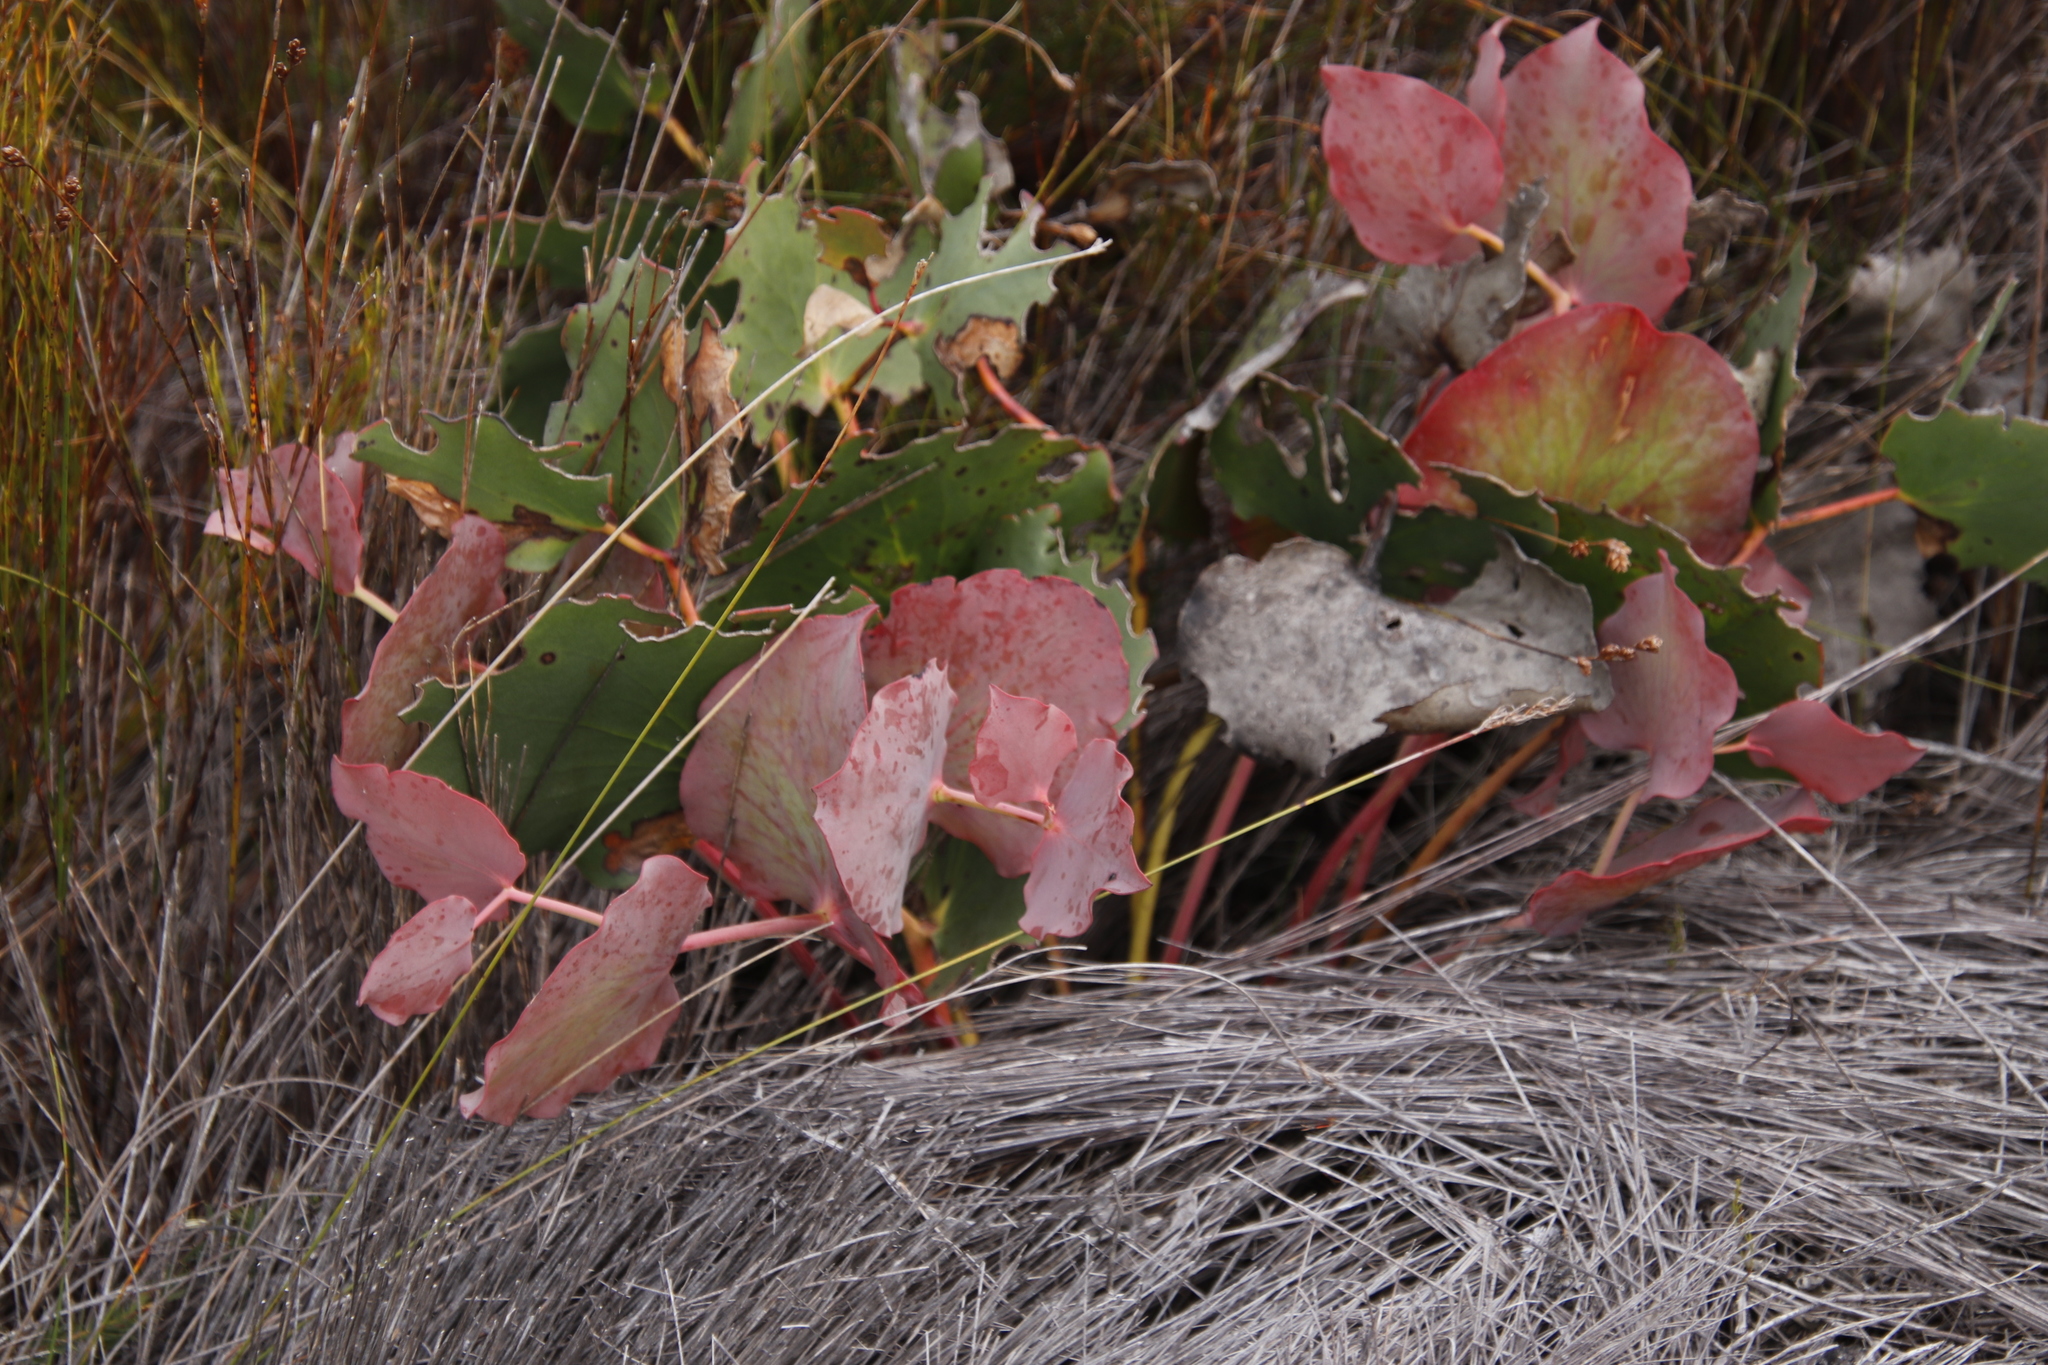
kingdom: Plantae
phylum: Tracheophyta
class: Magnoliopsida
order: Proteales
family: Proteaceae
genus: Protea
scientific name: Protea cordata
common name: Heart-leaf sugarbush
